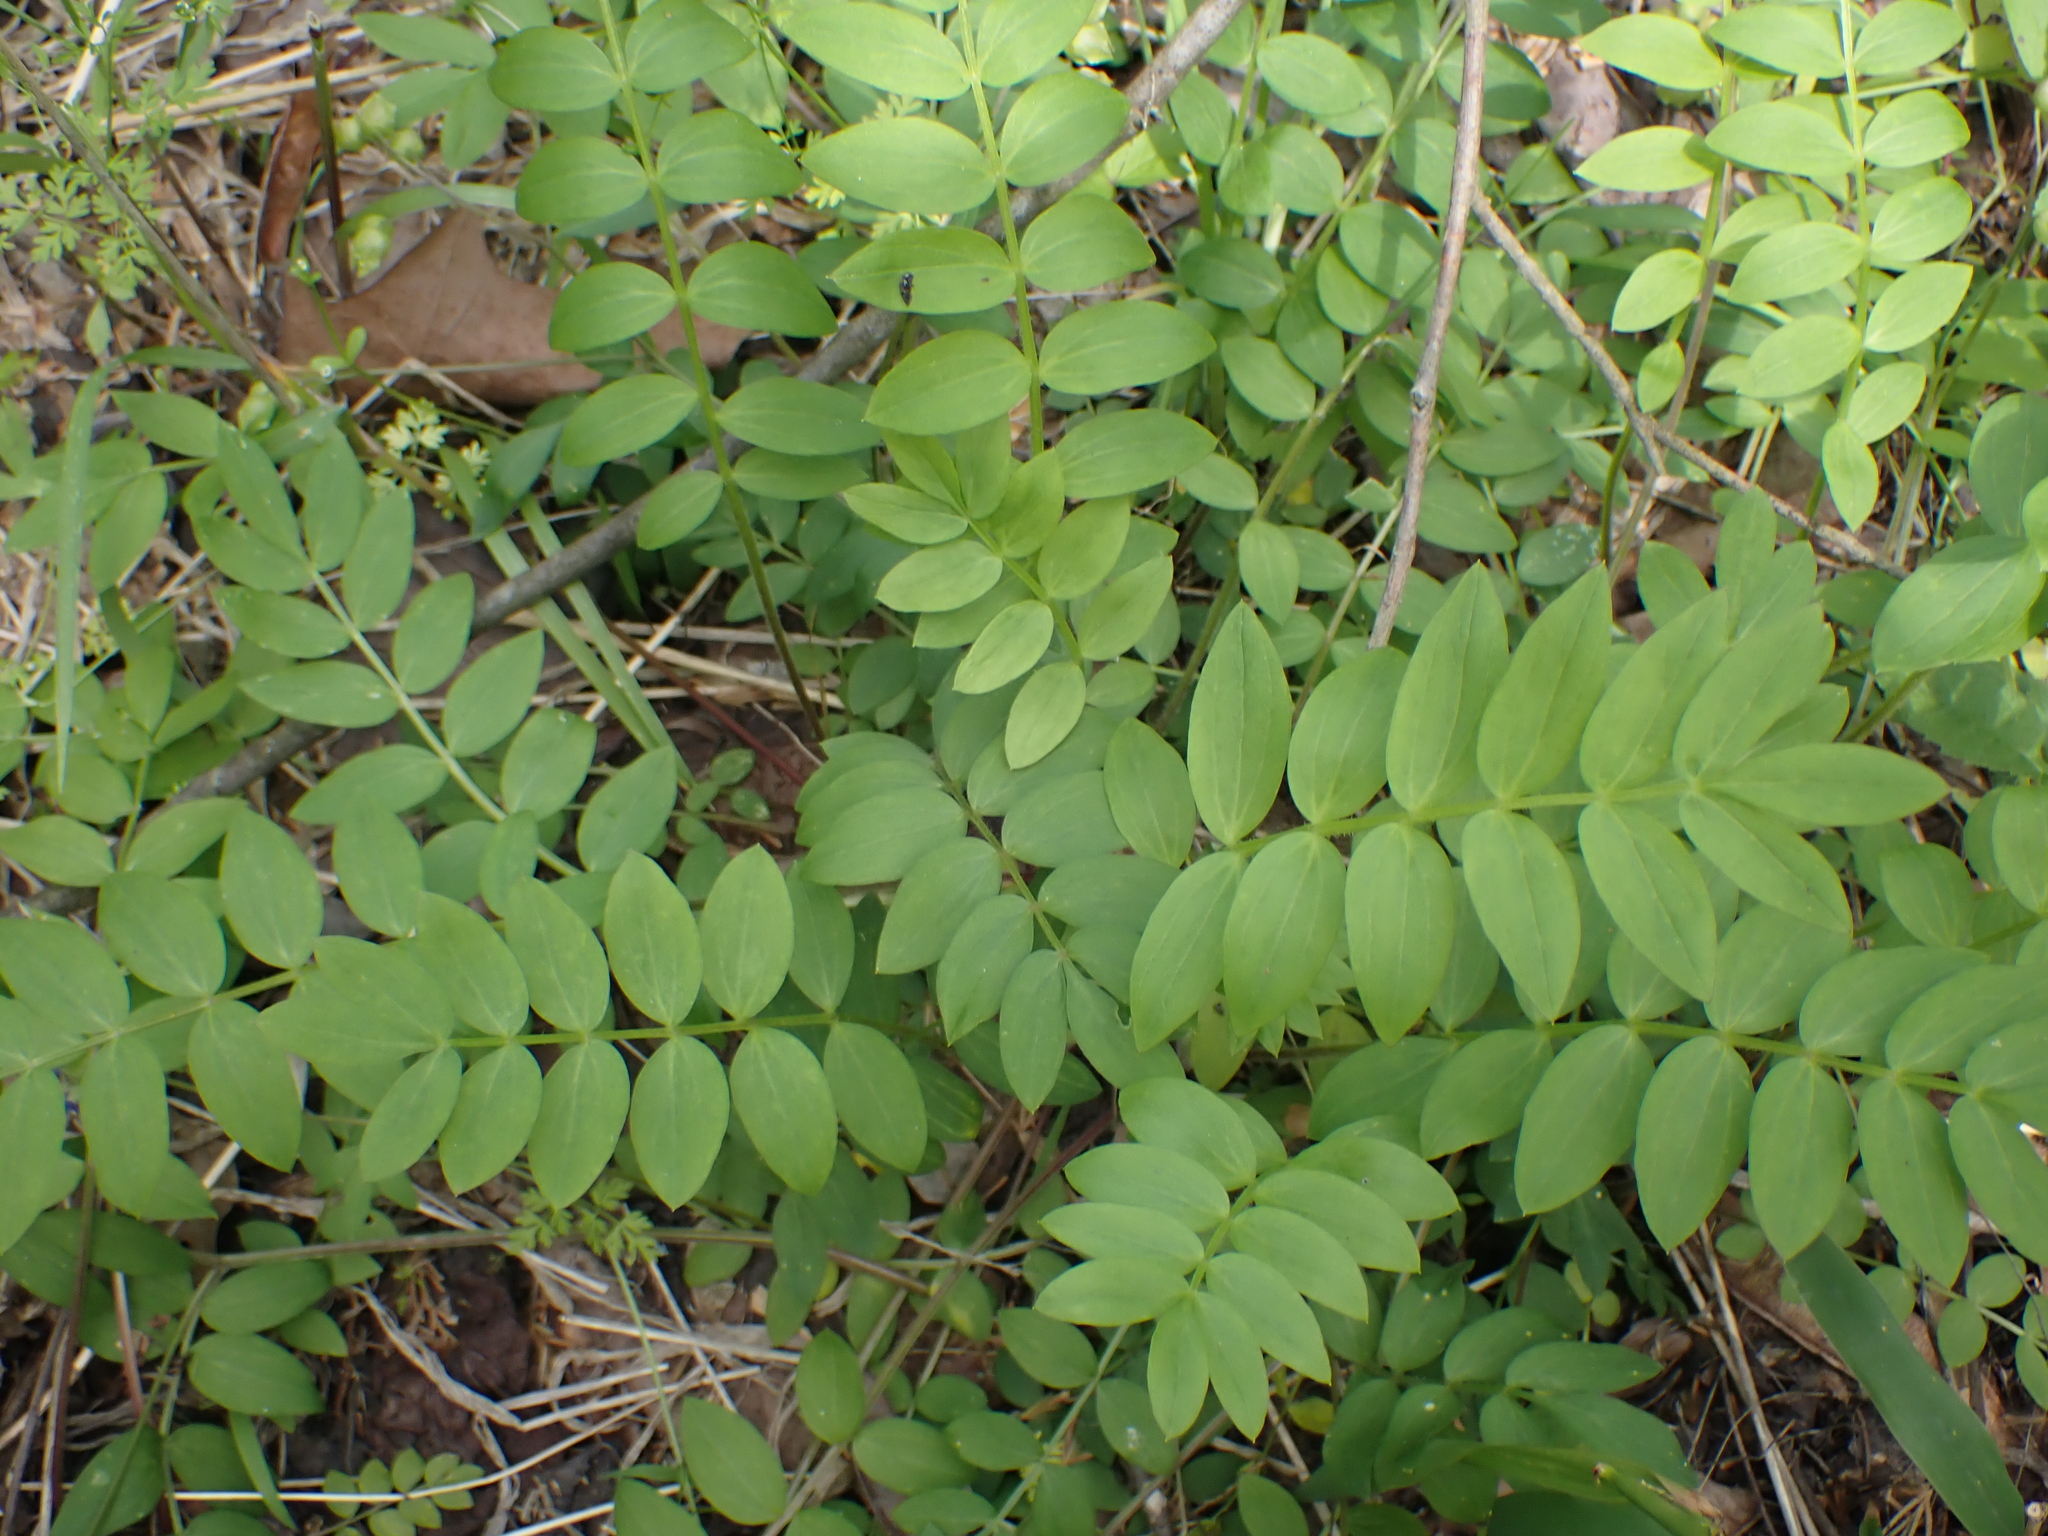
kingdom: Plantae
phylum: Tracheophyta
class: Magnoliopsida
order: Ericales
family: Polemoniaceae
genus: Polemonium
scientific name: Polemonium reptans
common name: Creeping jacob's-ladder
